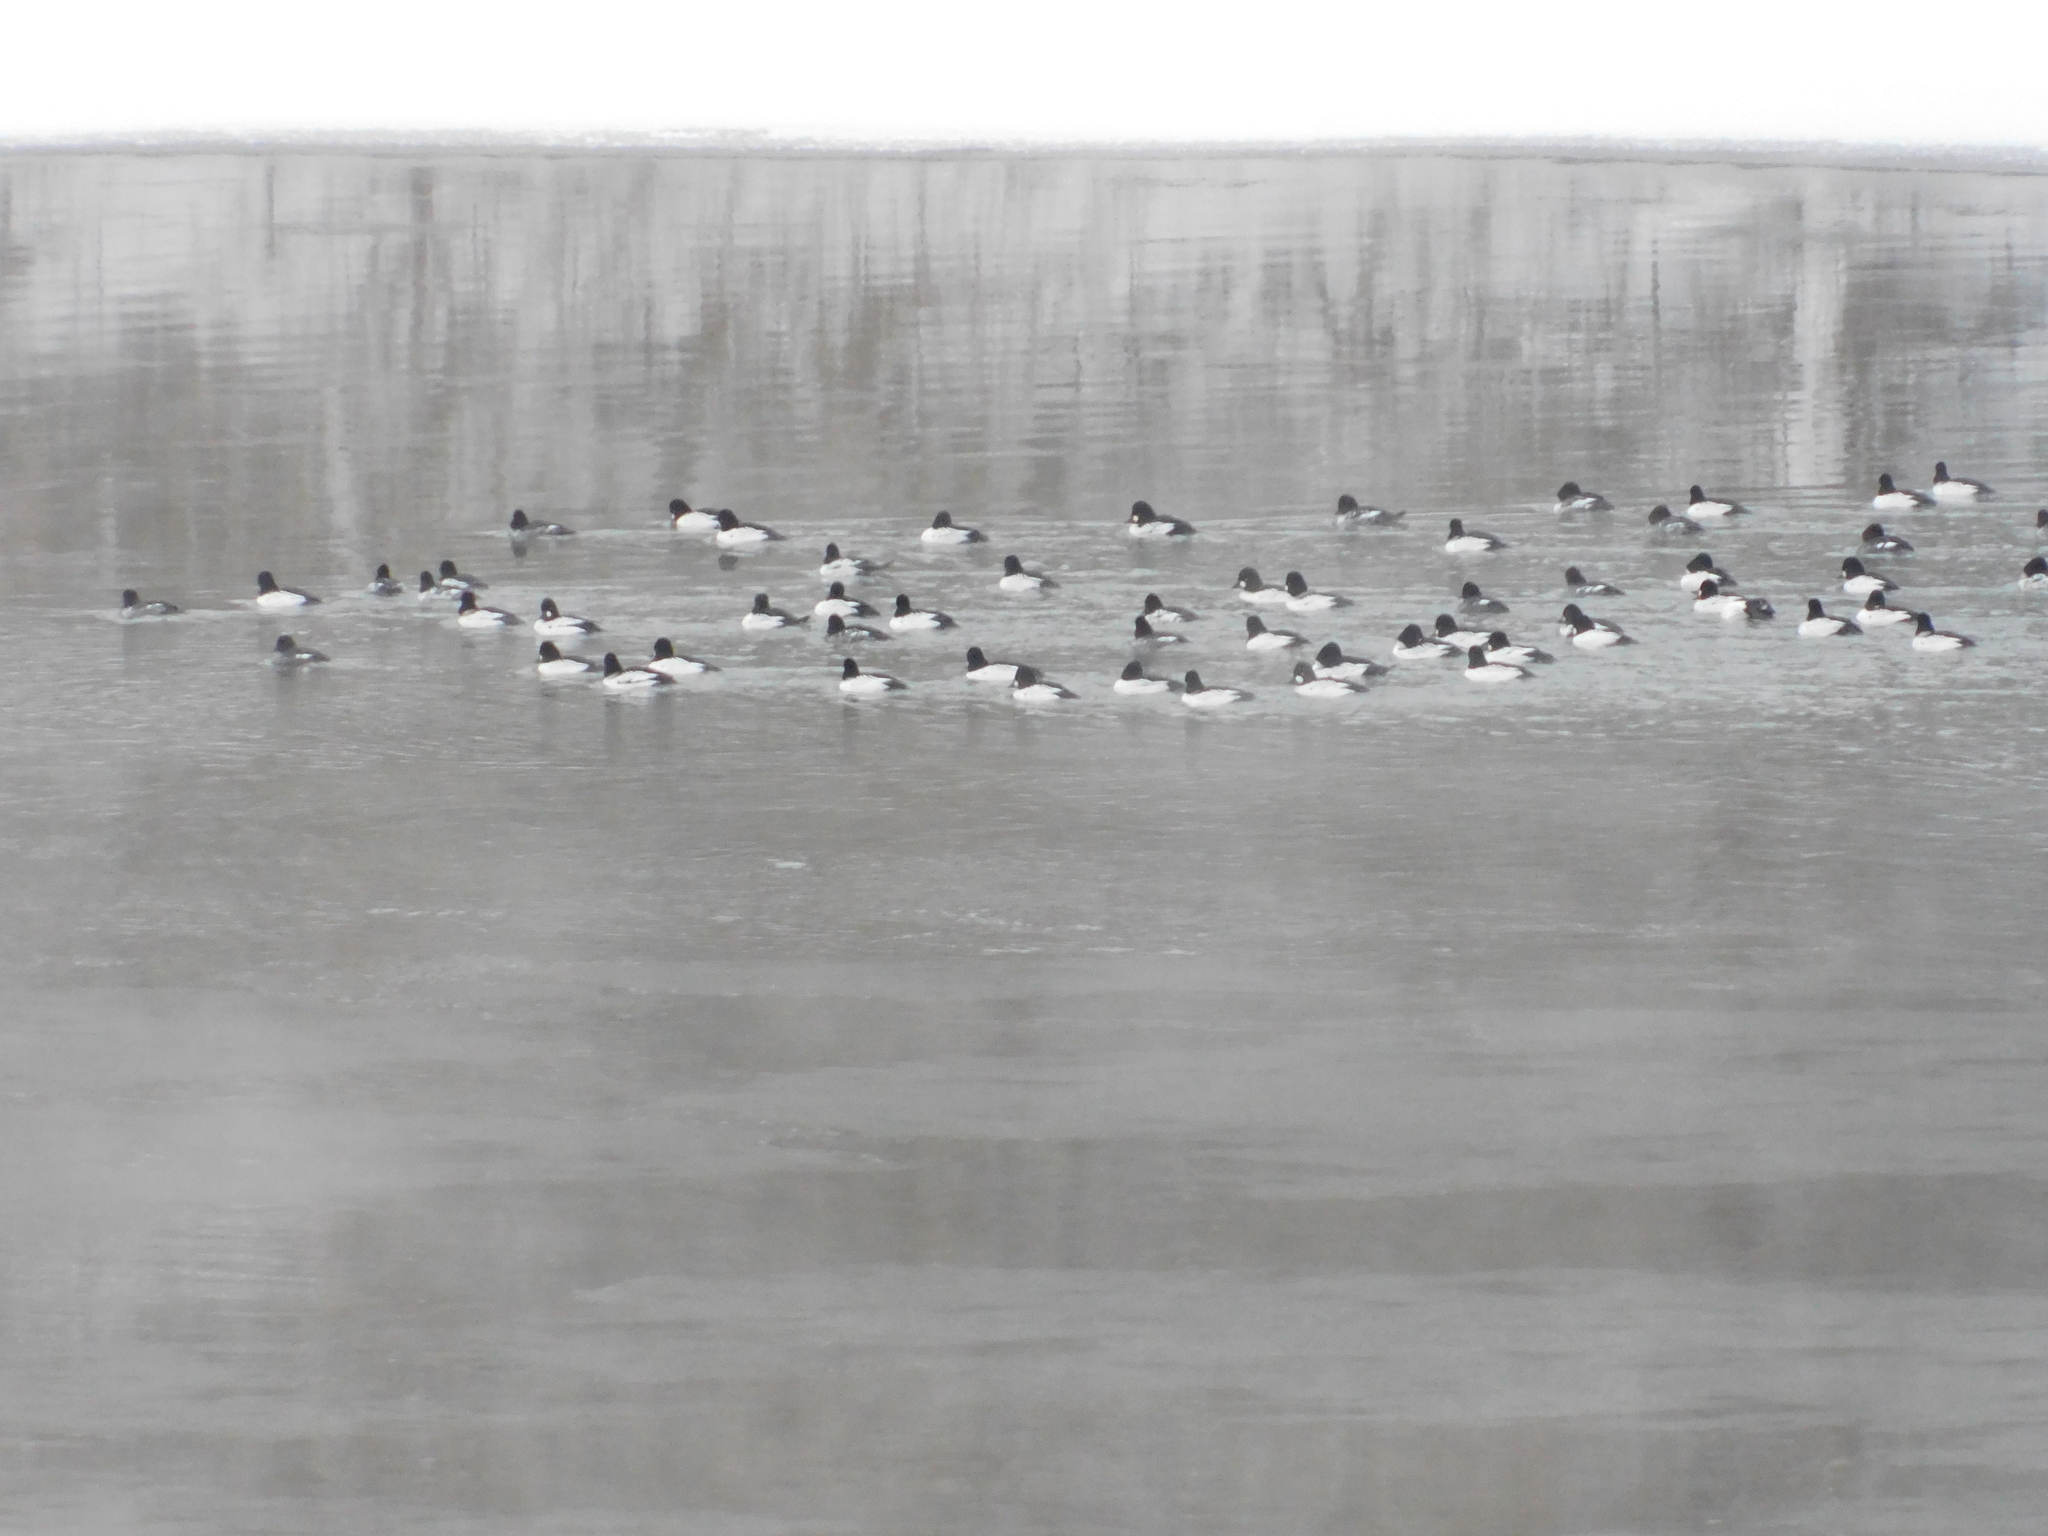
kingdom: Animalia
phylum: Chordata
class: Aves
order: Anseriformes
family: Anatidae
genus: Bucephala
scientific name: Bucephala clangula
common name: Common goldeneye
